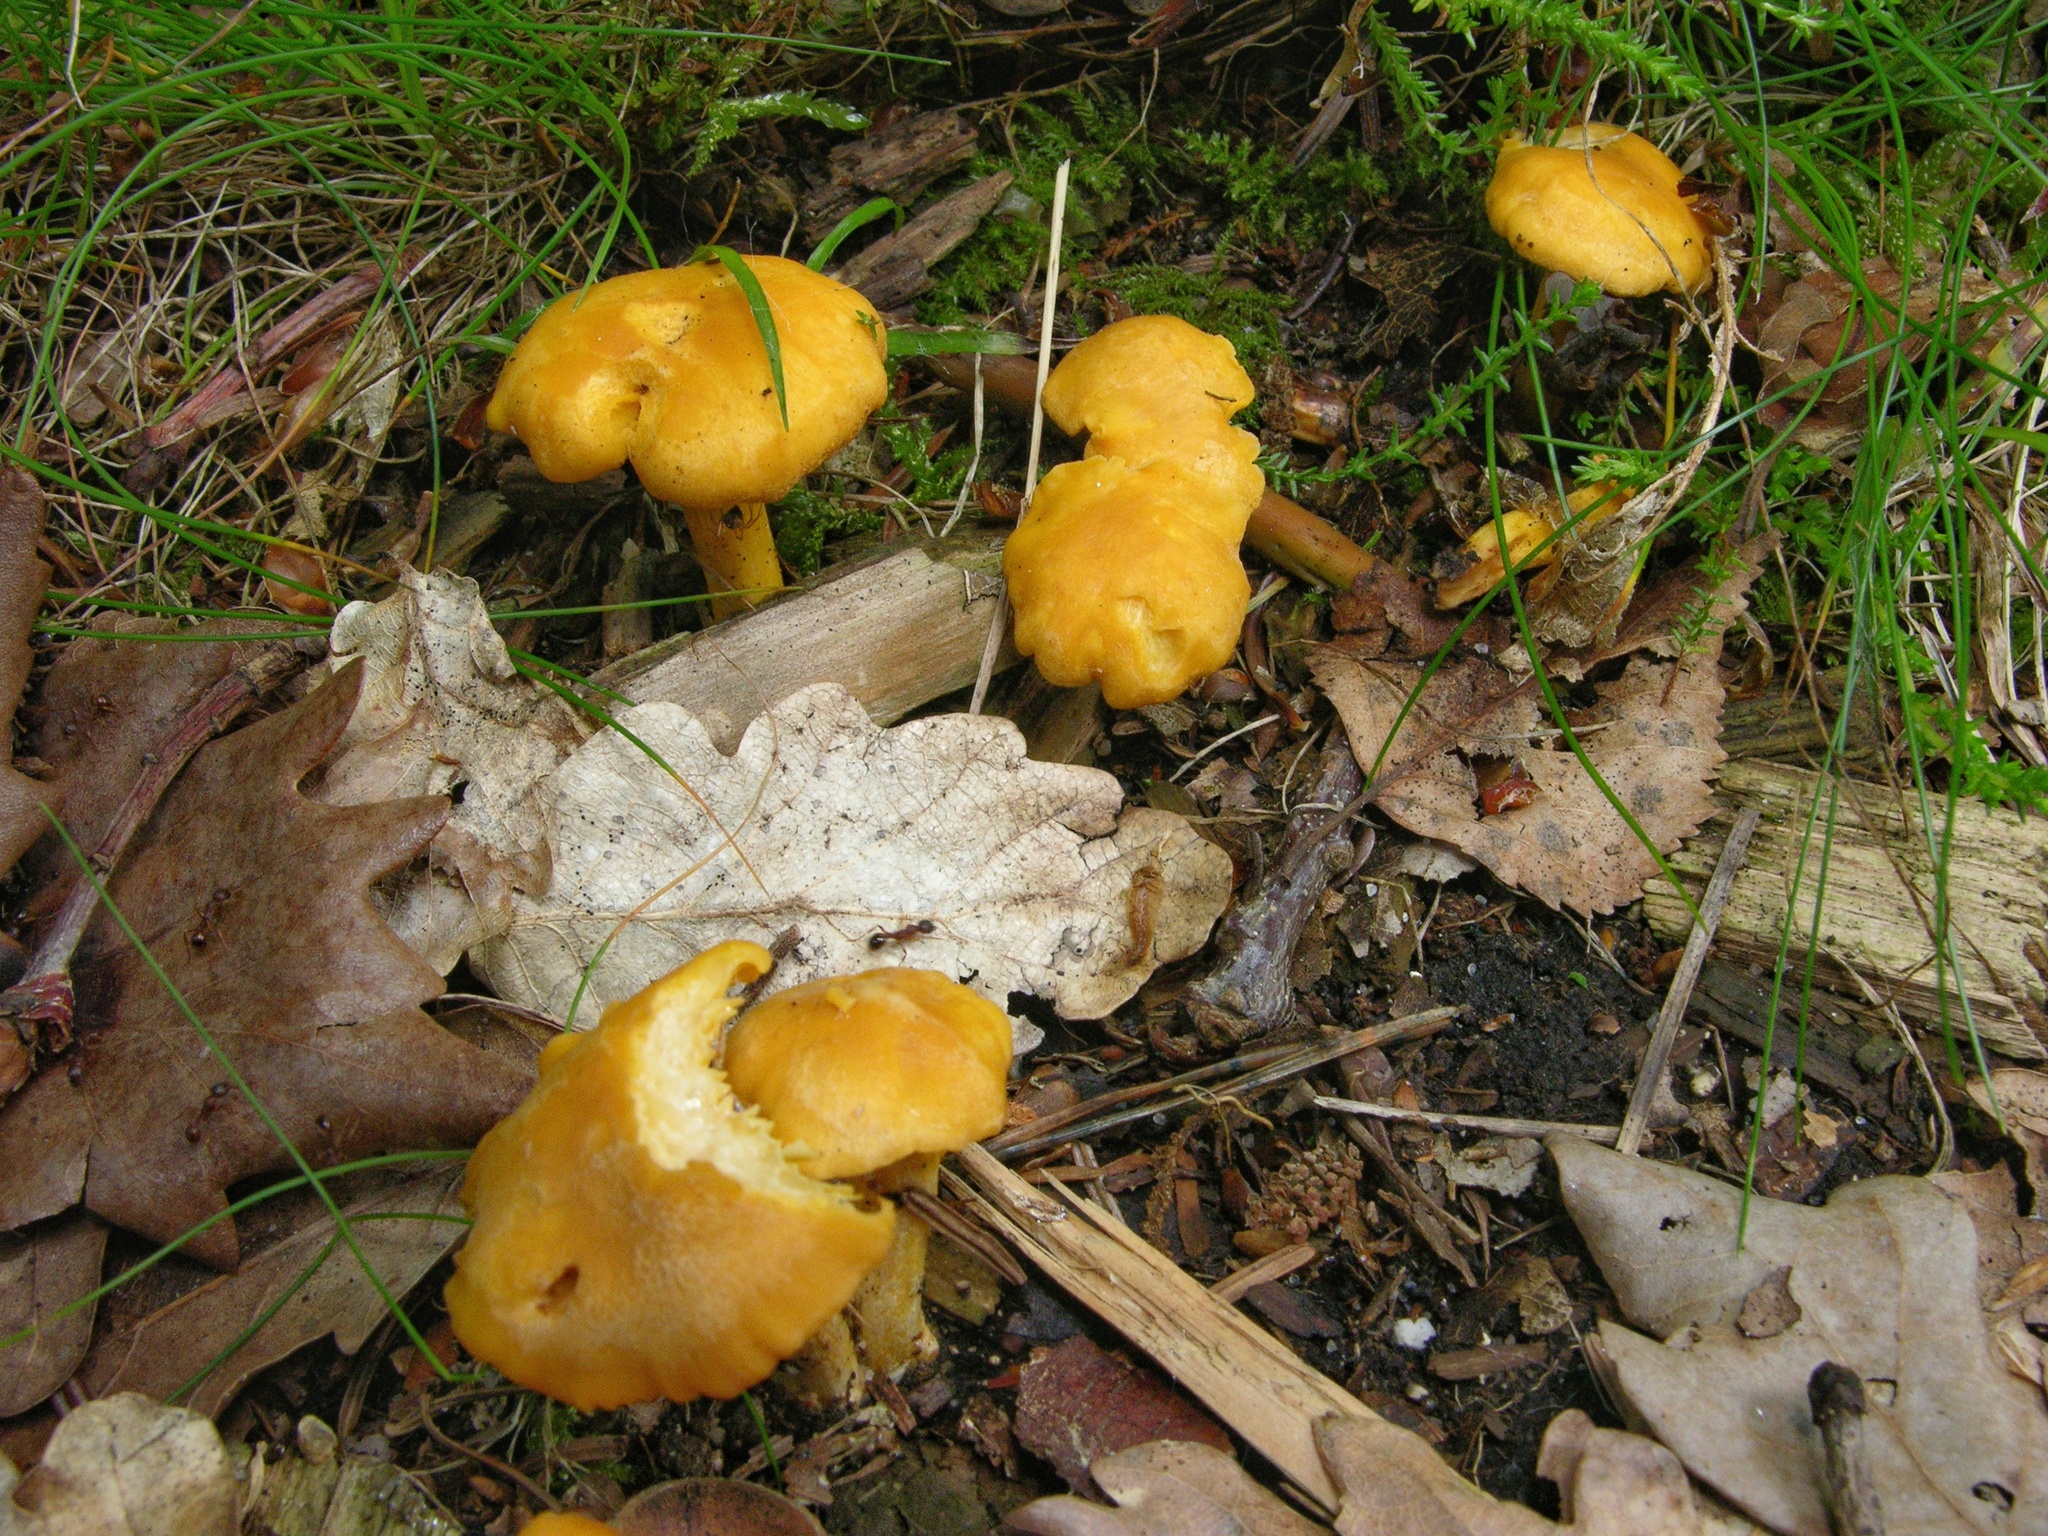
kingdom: Fungi
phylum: Basidiomycota
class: Agaricomycetes
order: Cantharellales
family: Hydnaceae
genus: Cantharellus
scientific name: Cantharellus cibarius
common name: Chanterelle
